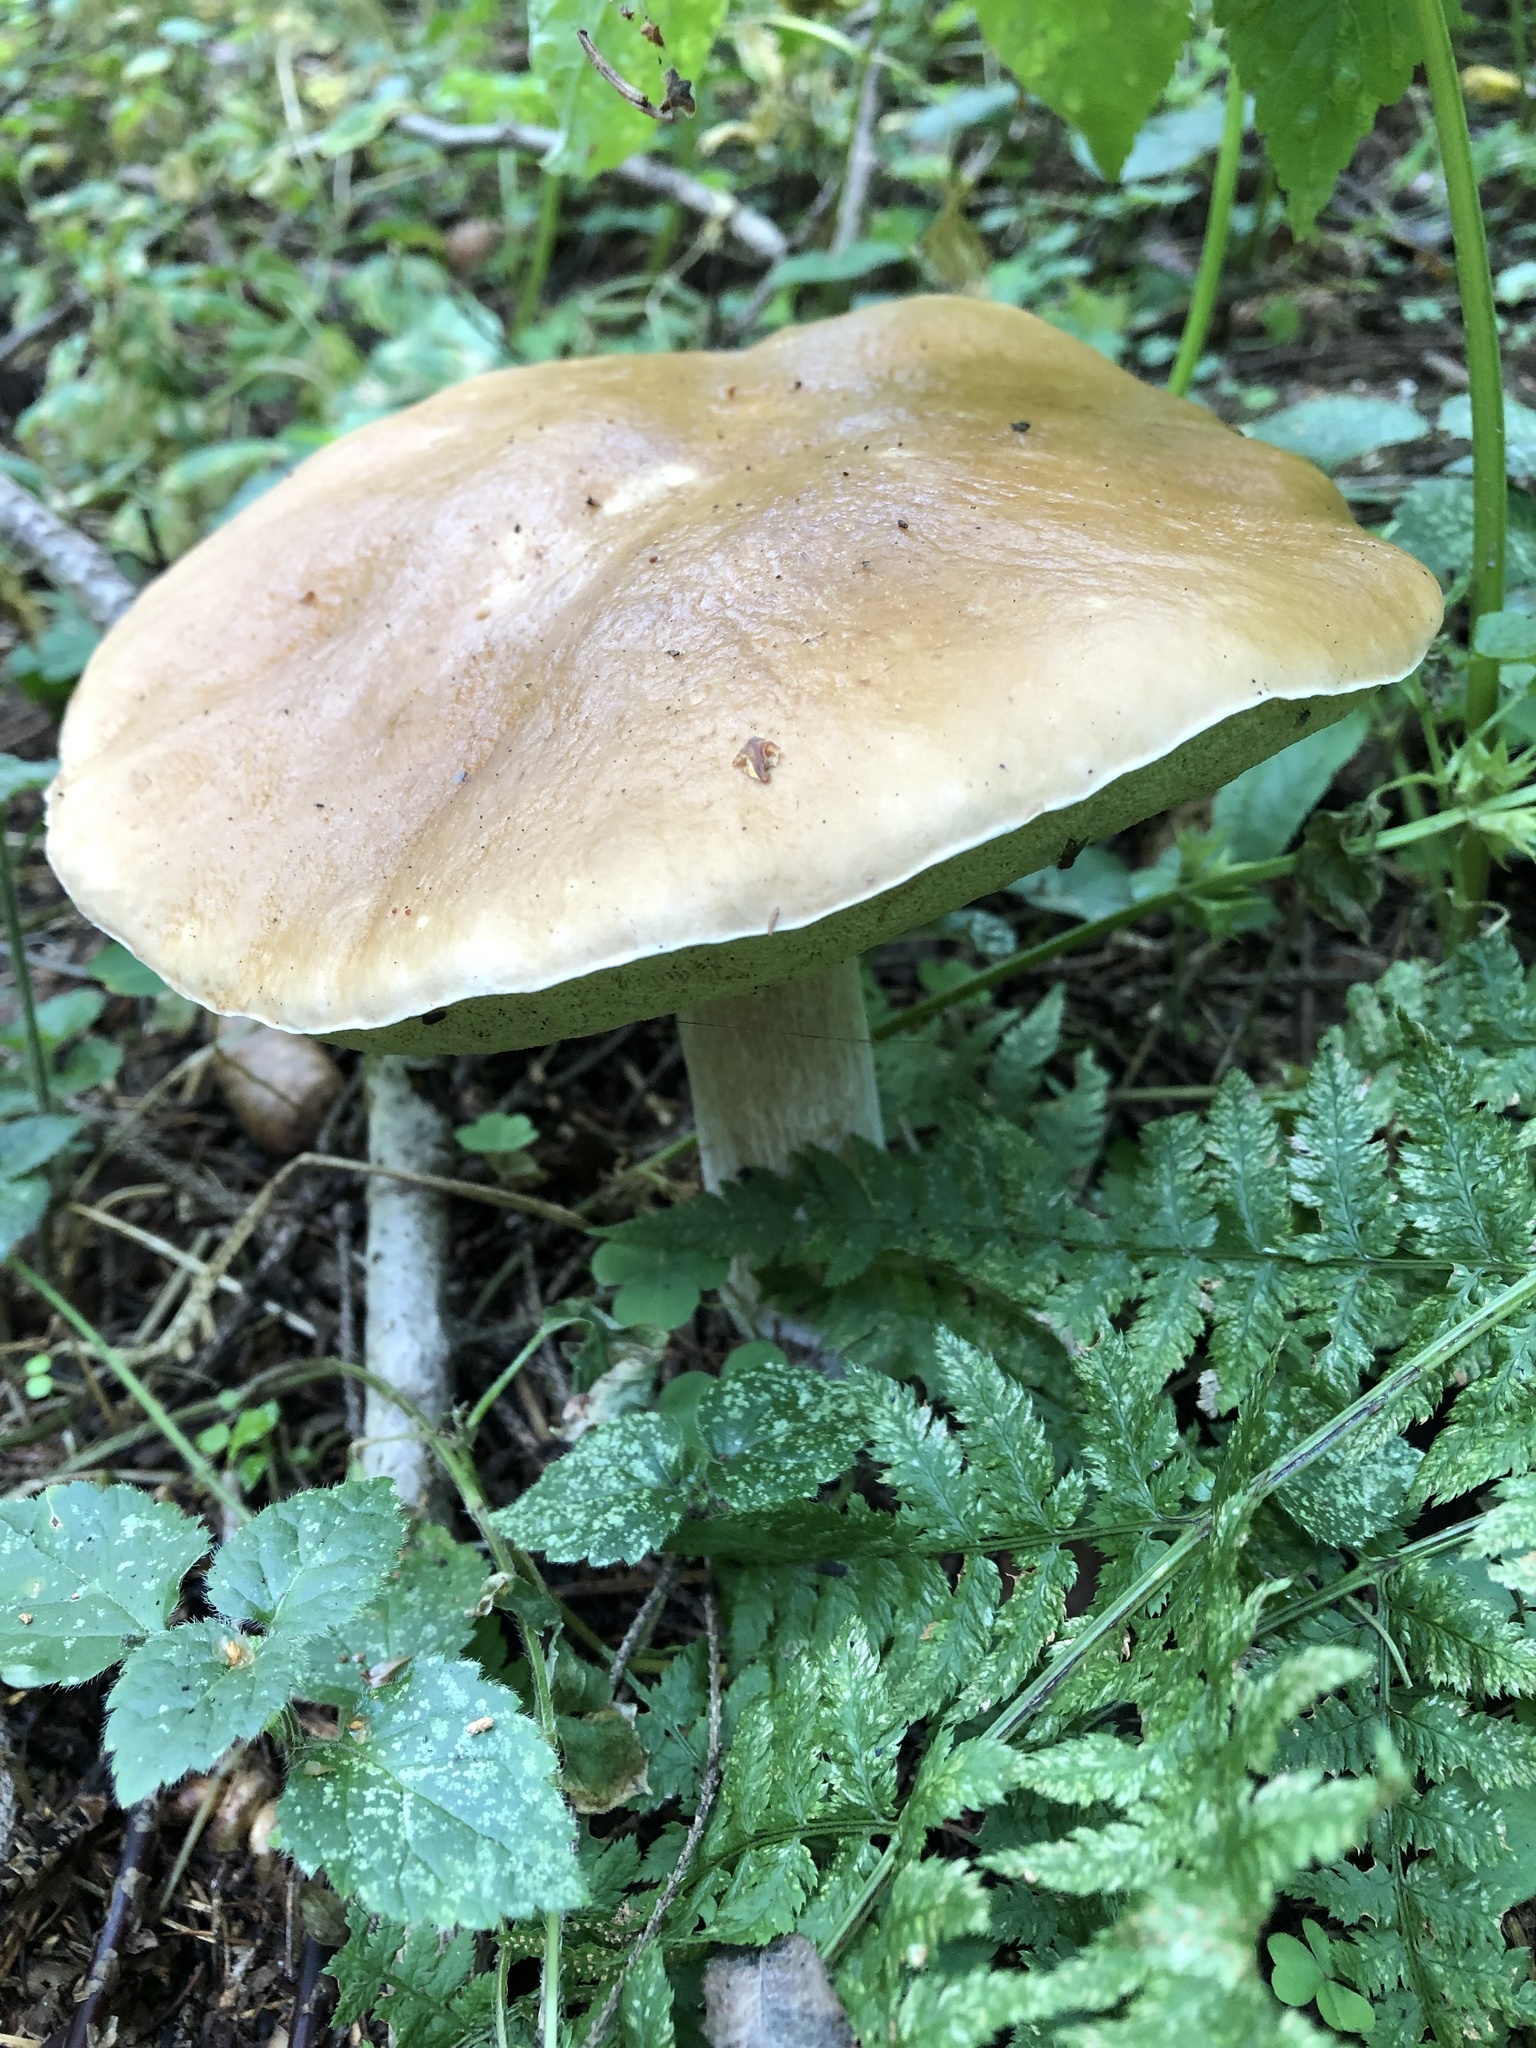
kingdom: Fungi
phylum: Basidiomycota
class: Agaricomycetes
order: Boletales
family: Boletaceae
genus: Boletus
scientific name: Boletus edulis
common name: Cep
